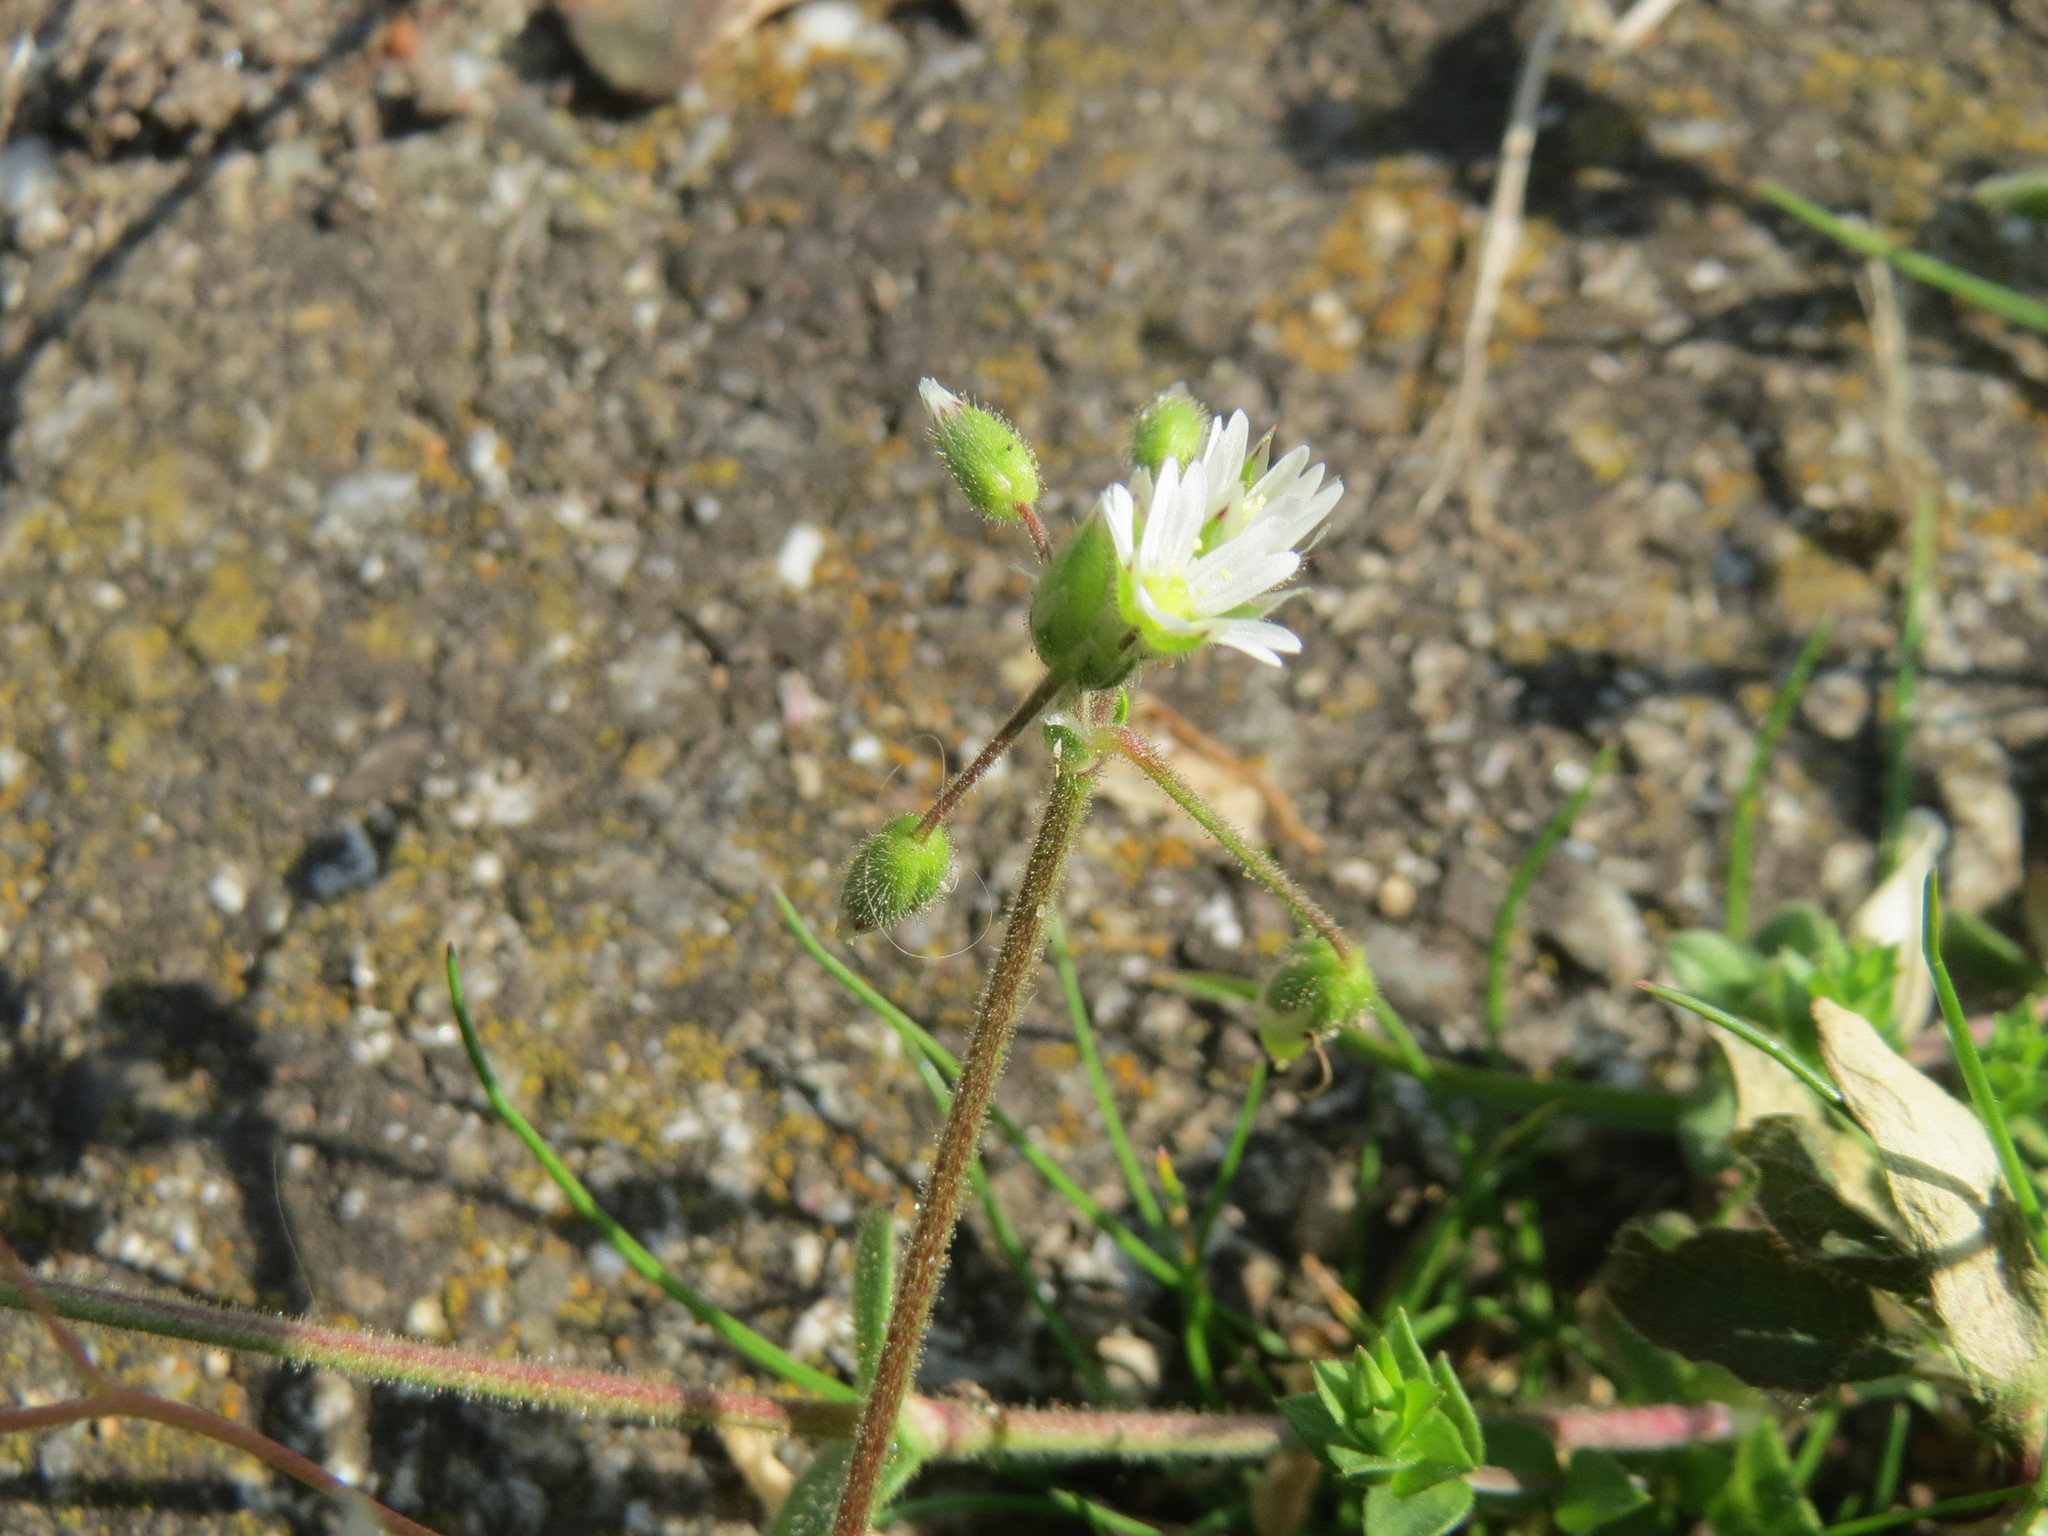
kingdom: Plantae
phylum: Tracheophyta
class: Magnoliopsida
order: Caryophyllales
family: Caryophyllaceae
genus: Cerastium
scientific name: Cerastium semidecandrum
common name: Little mouse-ear
